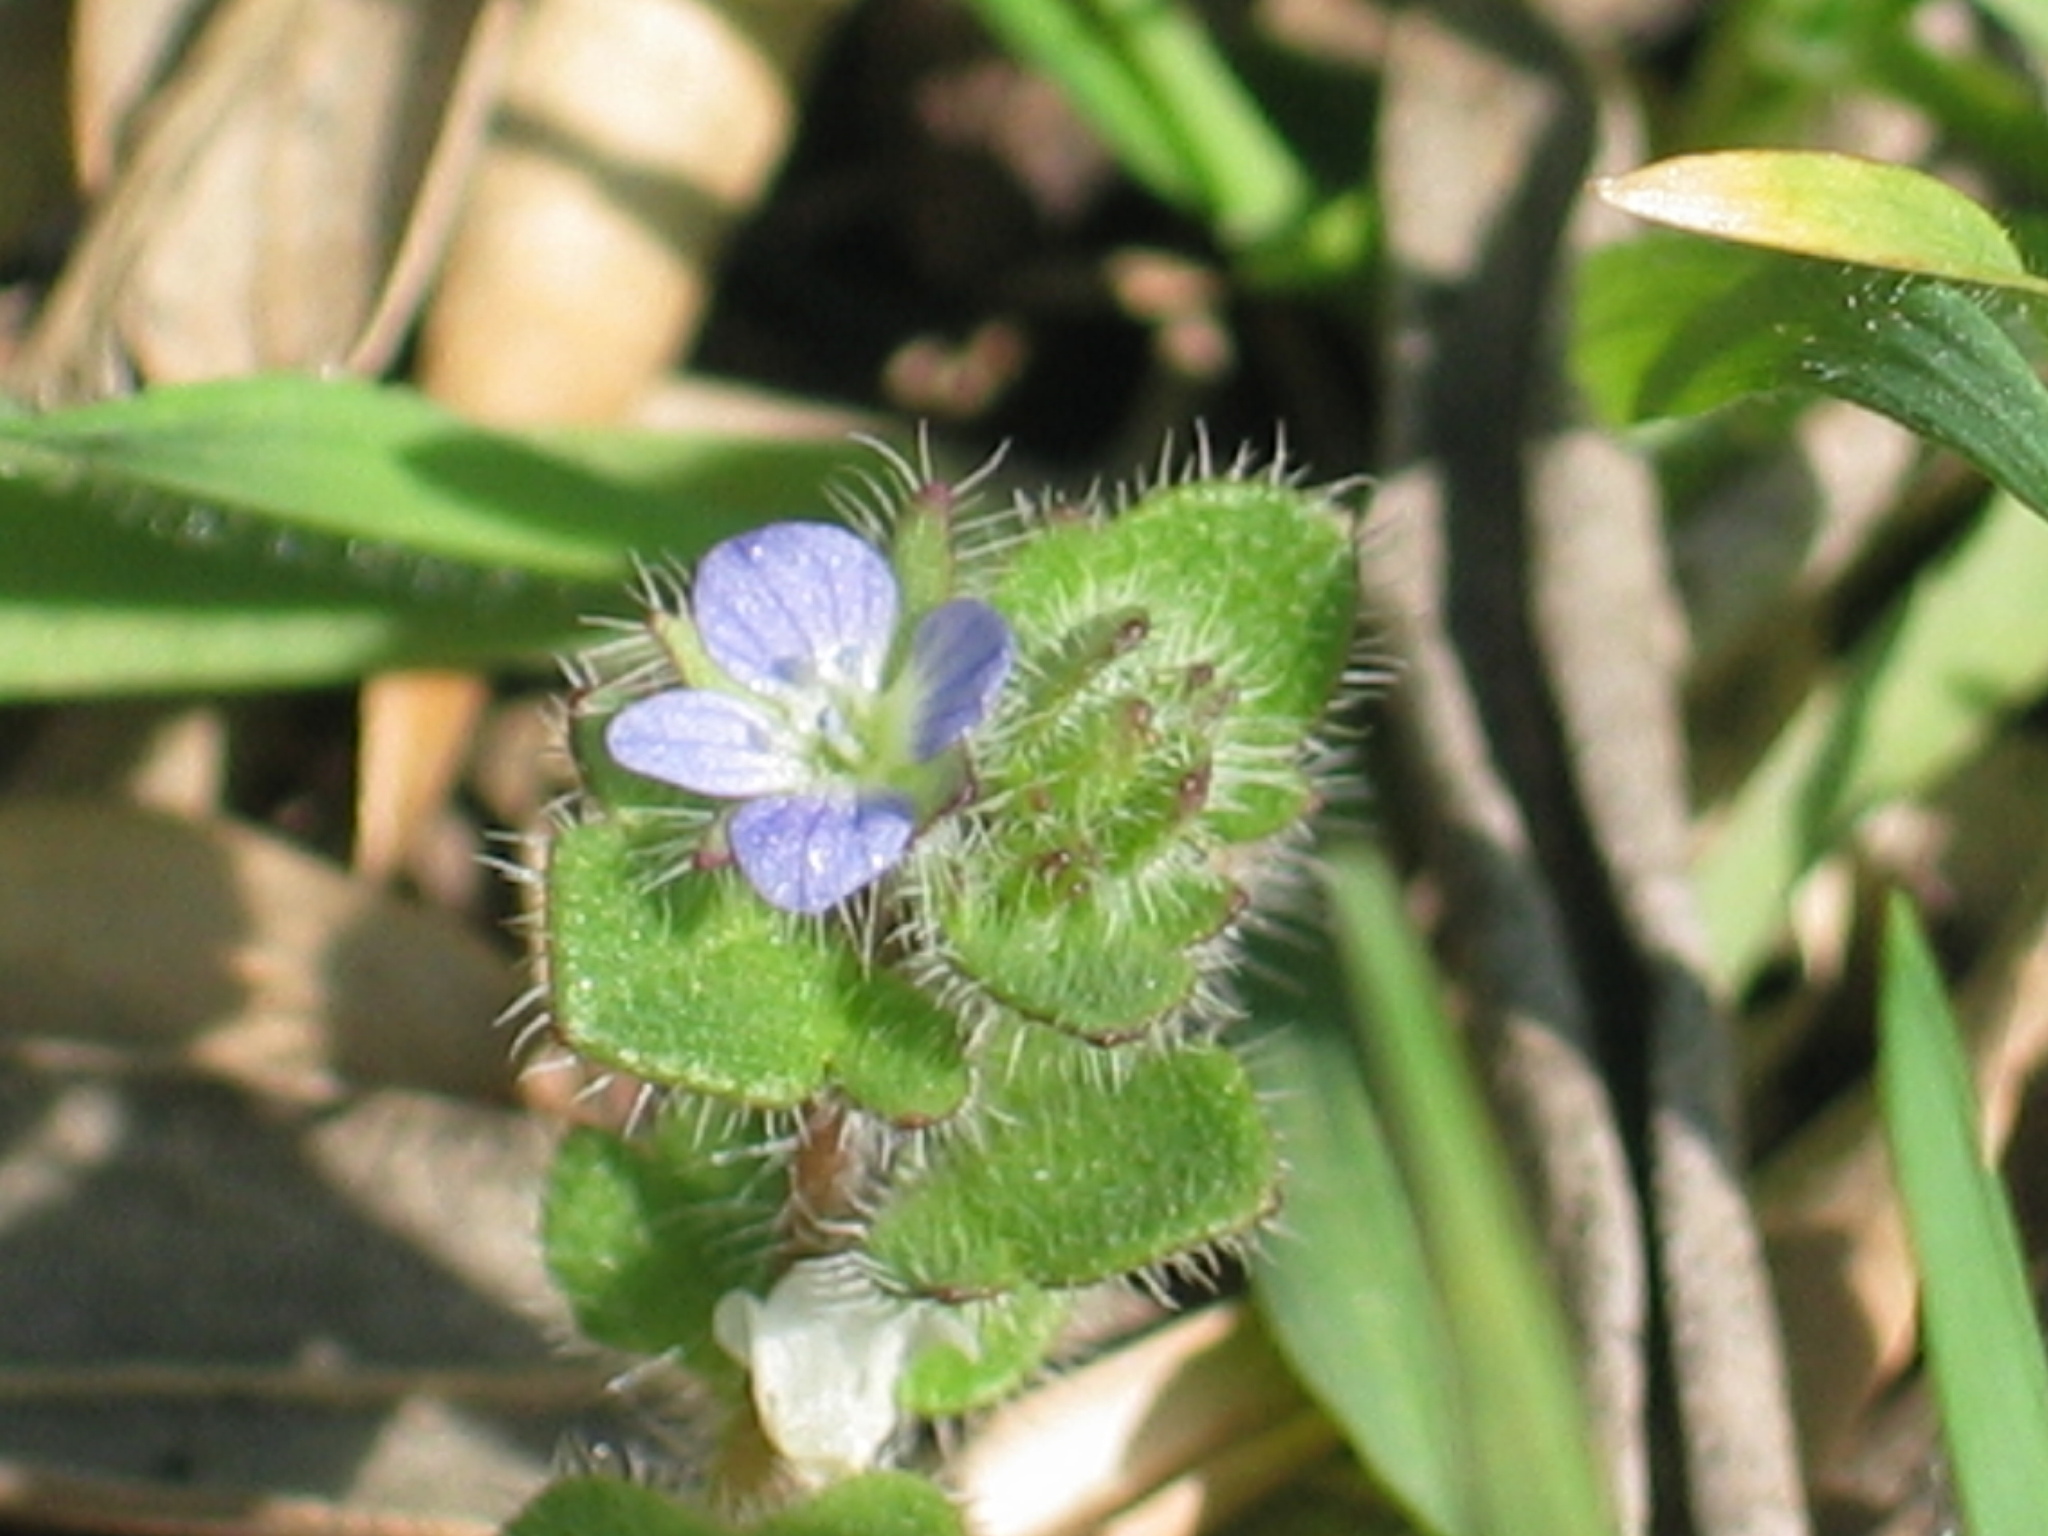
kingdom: Plantae
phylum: Tracheophyta
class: Magnoliopsida
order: Lamiales
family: Plantaginaceae
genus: Veronica
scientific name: Veronica hederifolia
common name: Ivy-leaved speedwell
